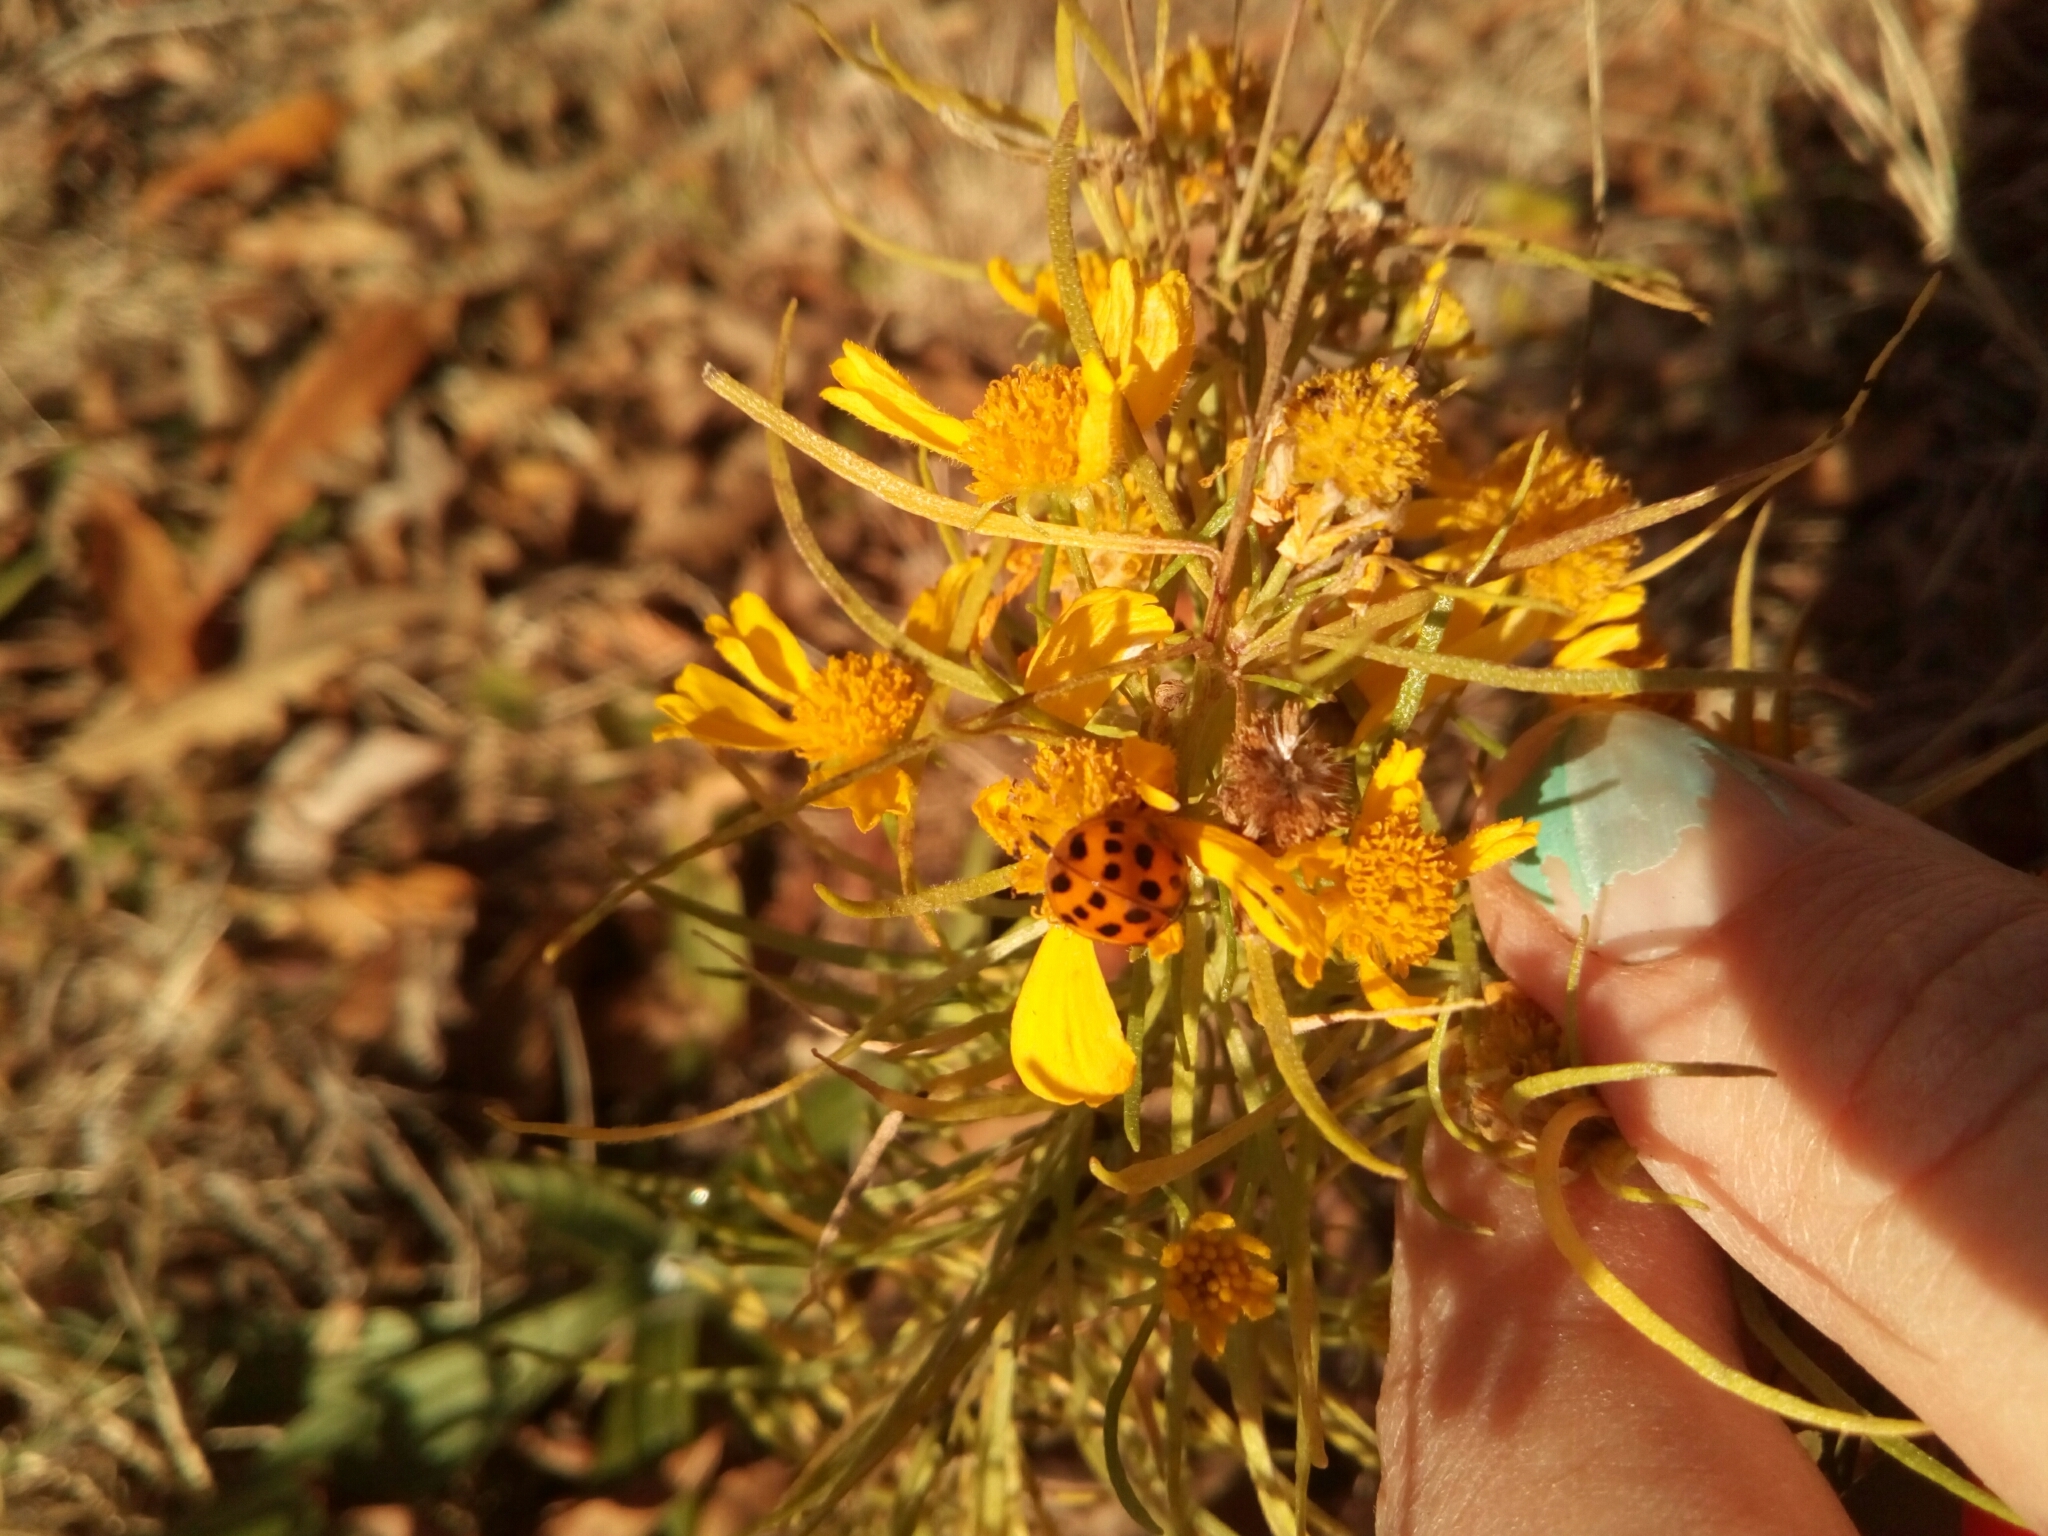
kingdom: Animalia
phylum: Arthropoda
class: Insecta
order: Coleoptera
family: Coccinellidae
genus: Harmonia
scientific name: Harmonia axyridis
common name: Harlequin ladybird
